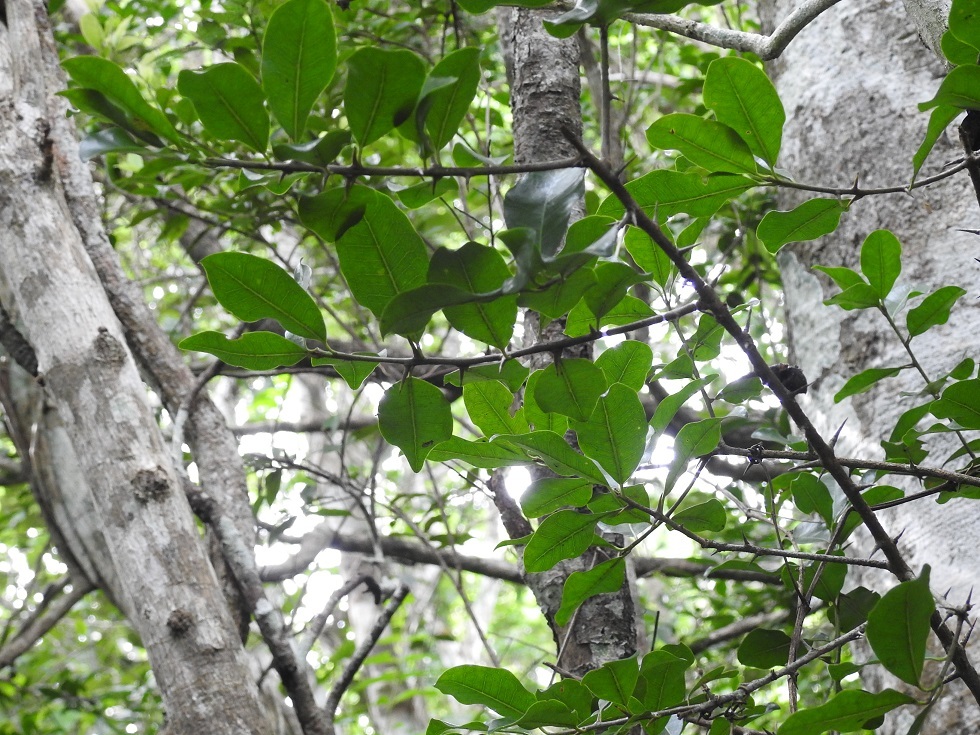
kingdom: Plantae
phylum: Tracheophyta
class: Magnoliopsida
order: Ericales
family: Sapotaceae
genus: Sideroxylon
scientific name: Sideroxylon palmeri
